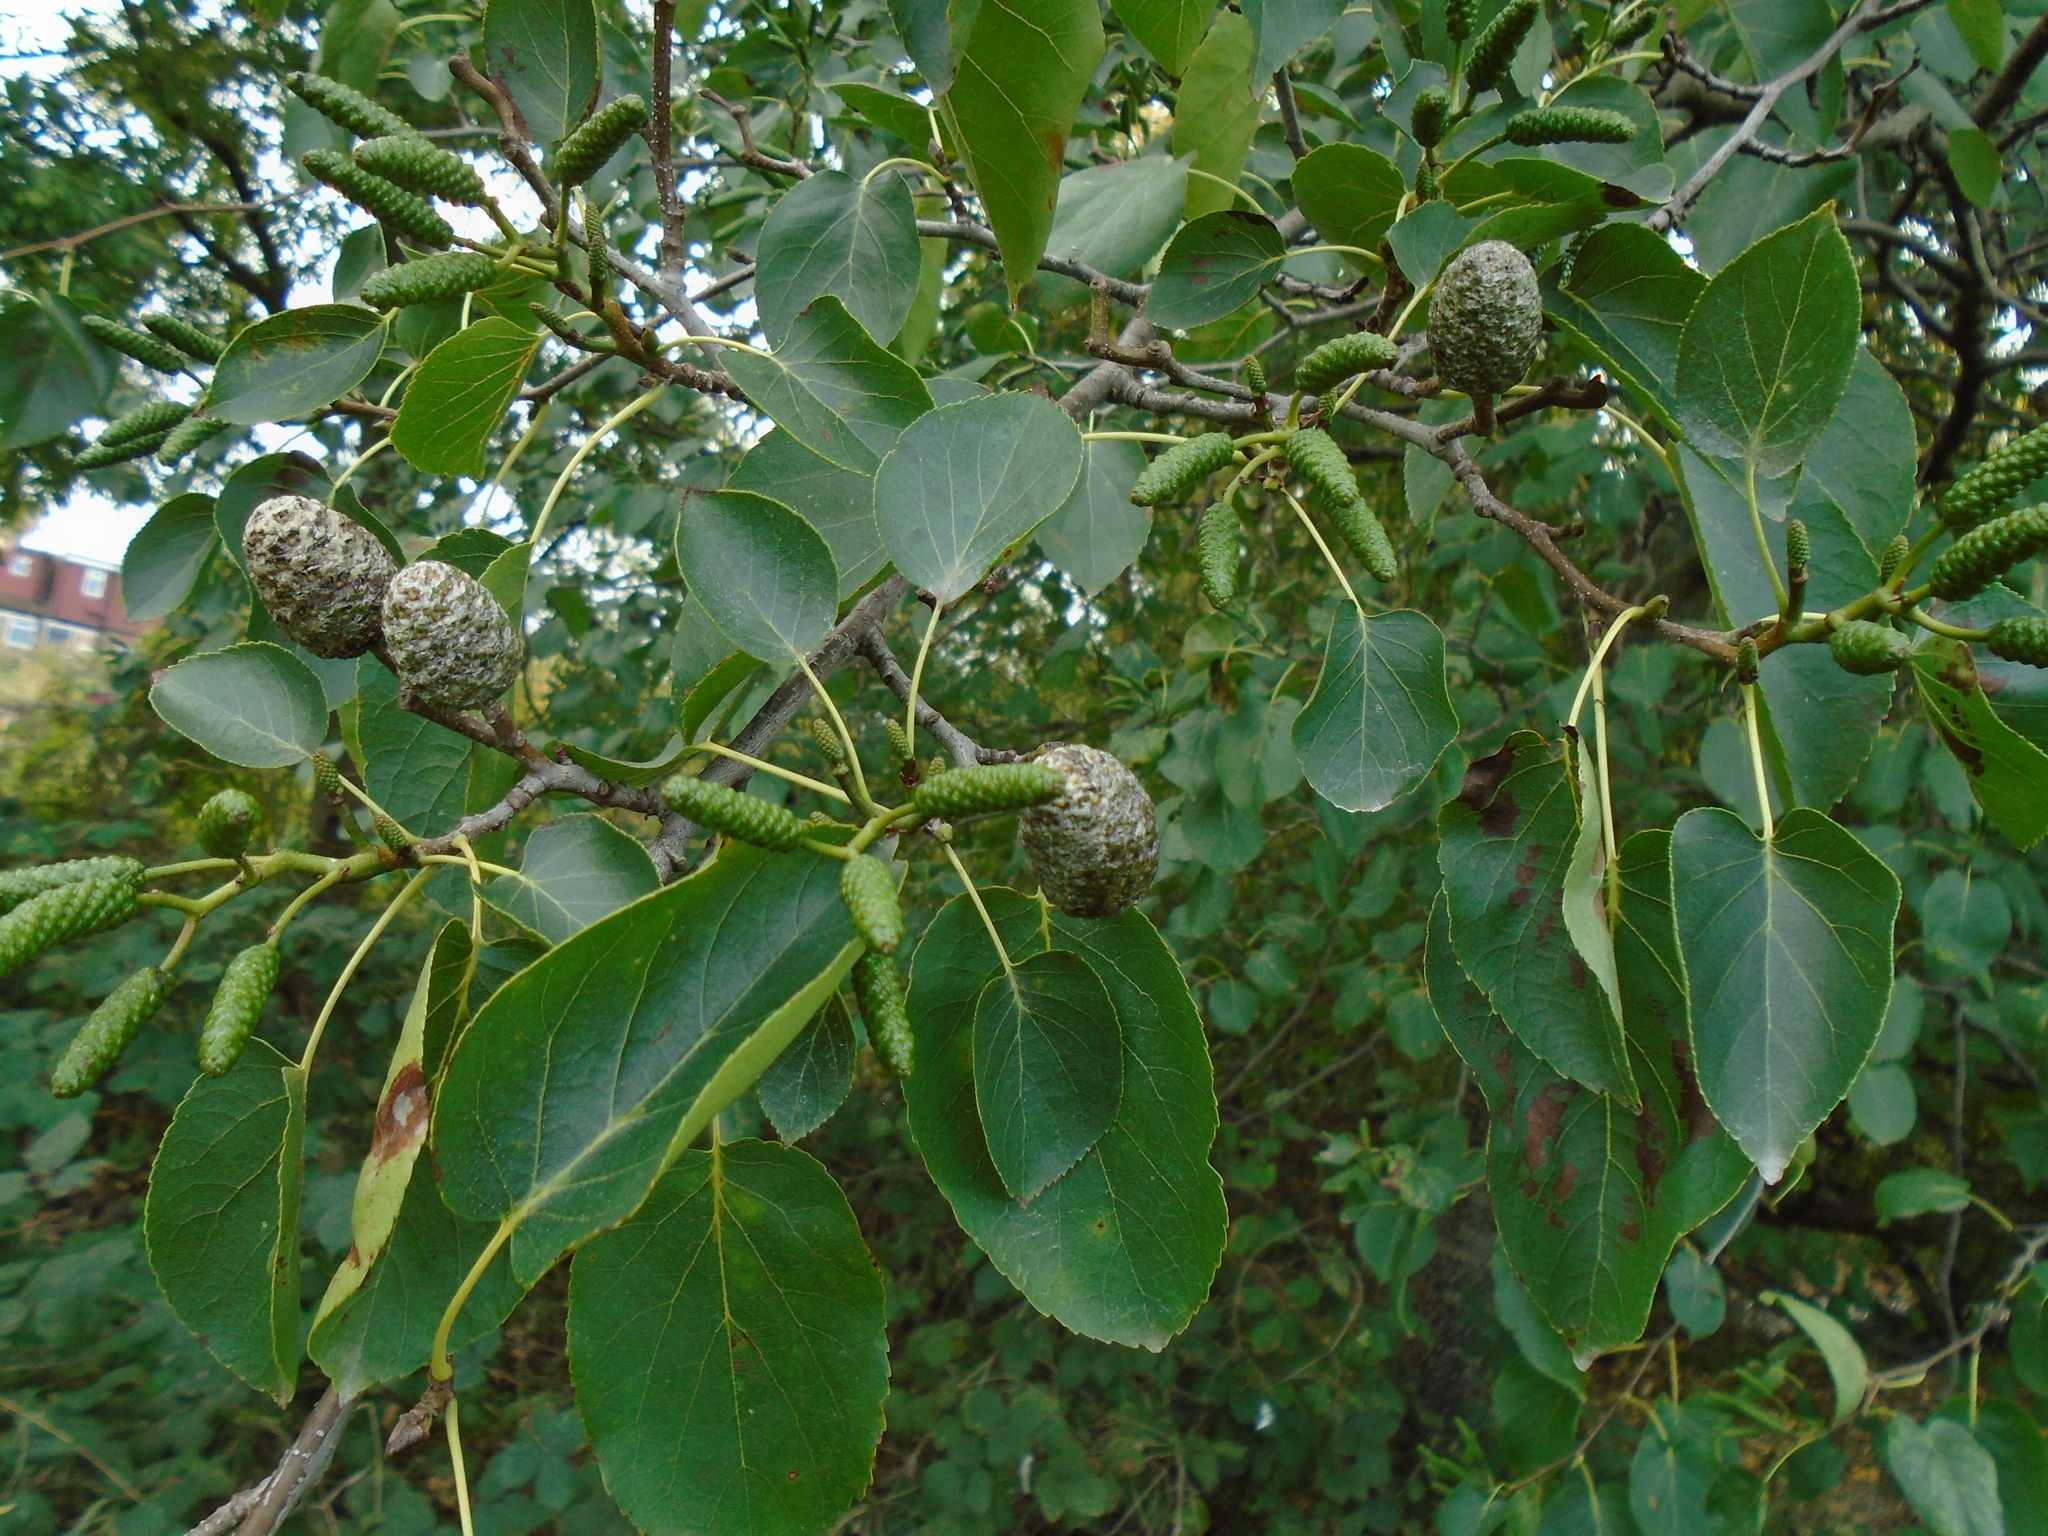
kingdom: Plantae
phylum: Tracheophyta
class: Magnoliopsida
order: Fagales
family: Betulaceae
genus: Alnus
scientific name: Alnus cordata
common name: Italian alder
